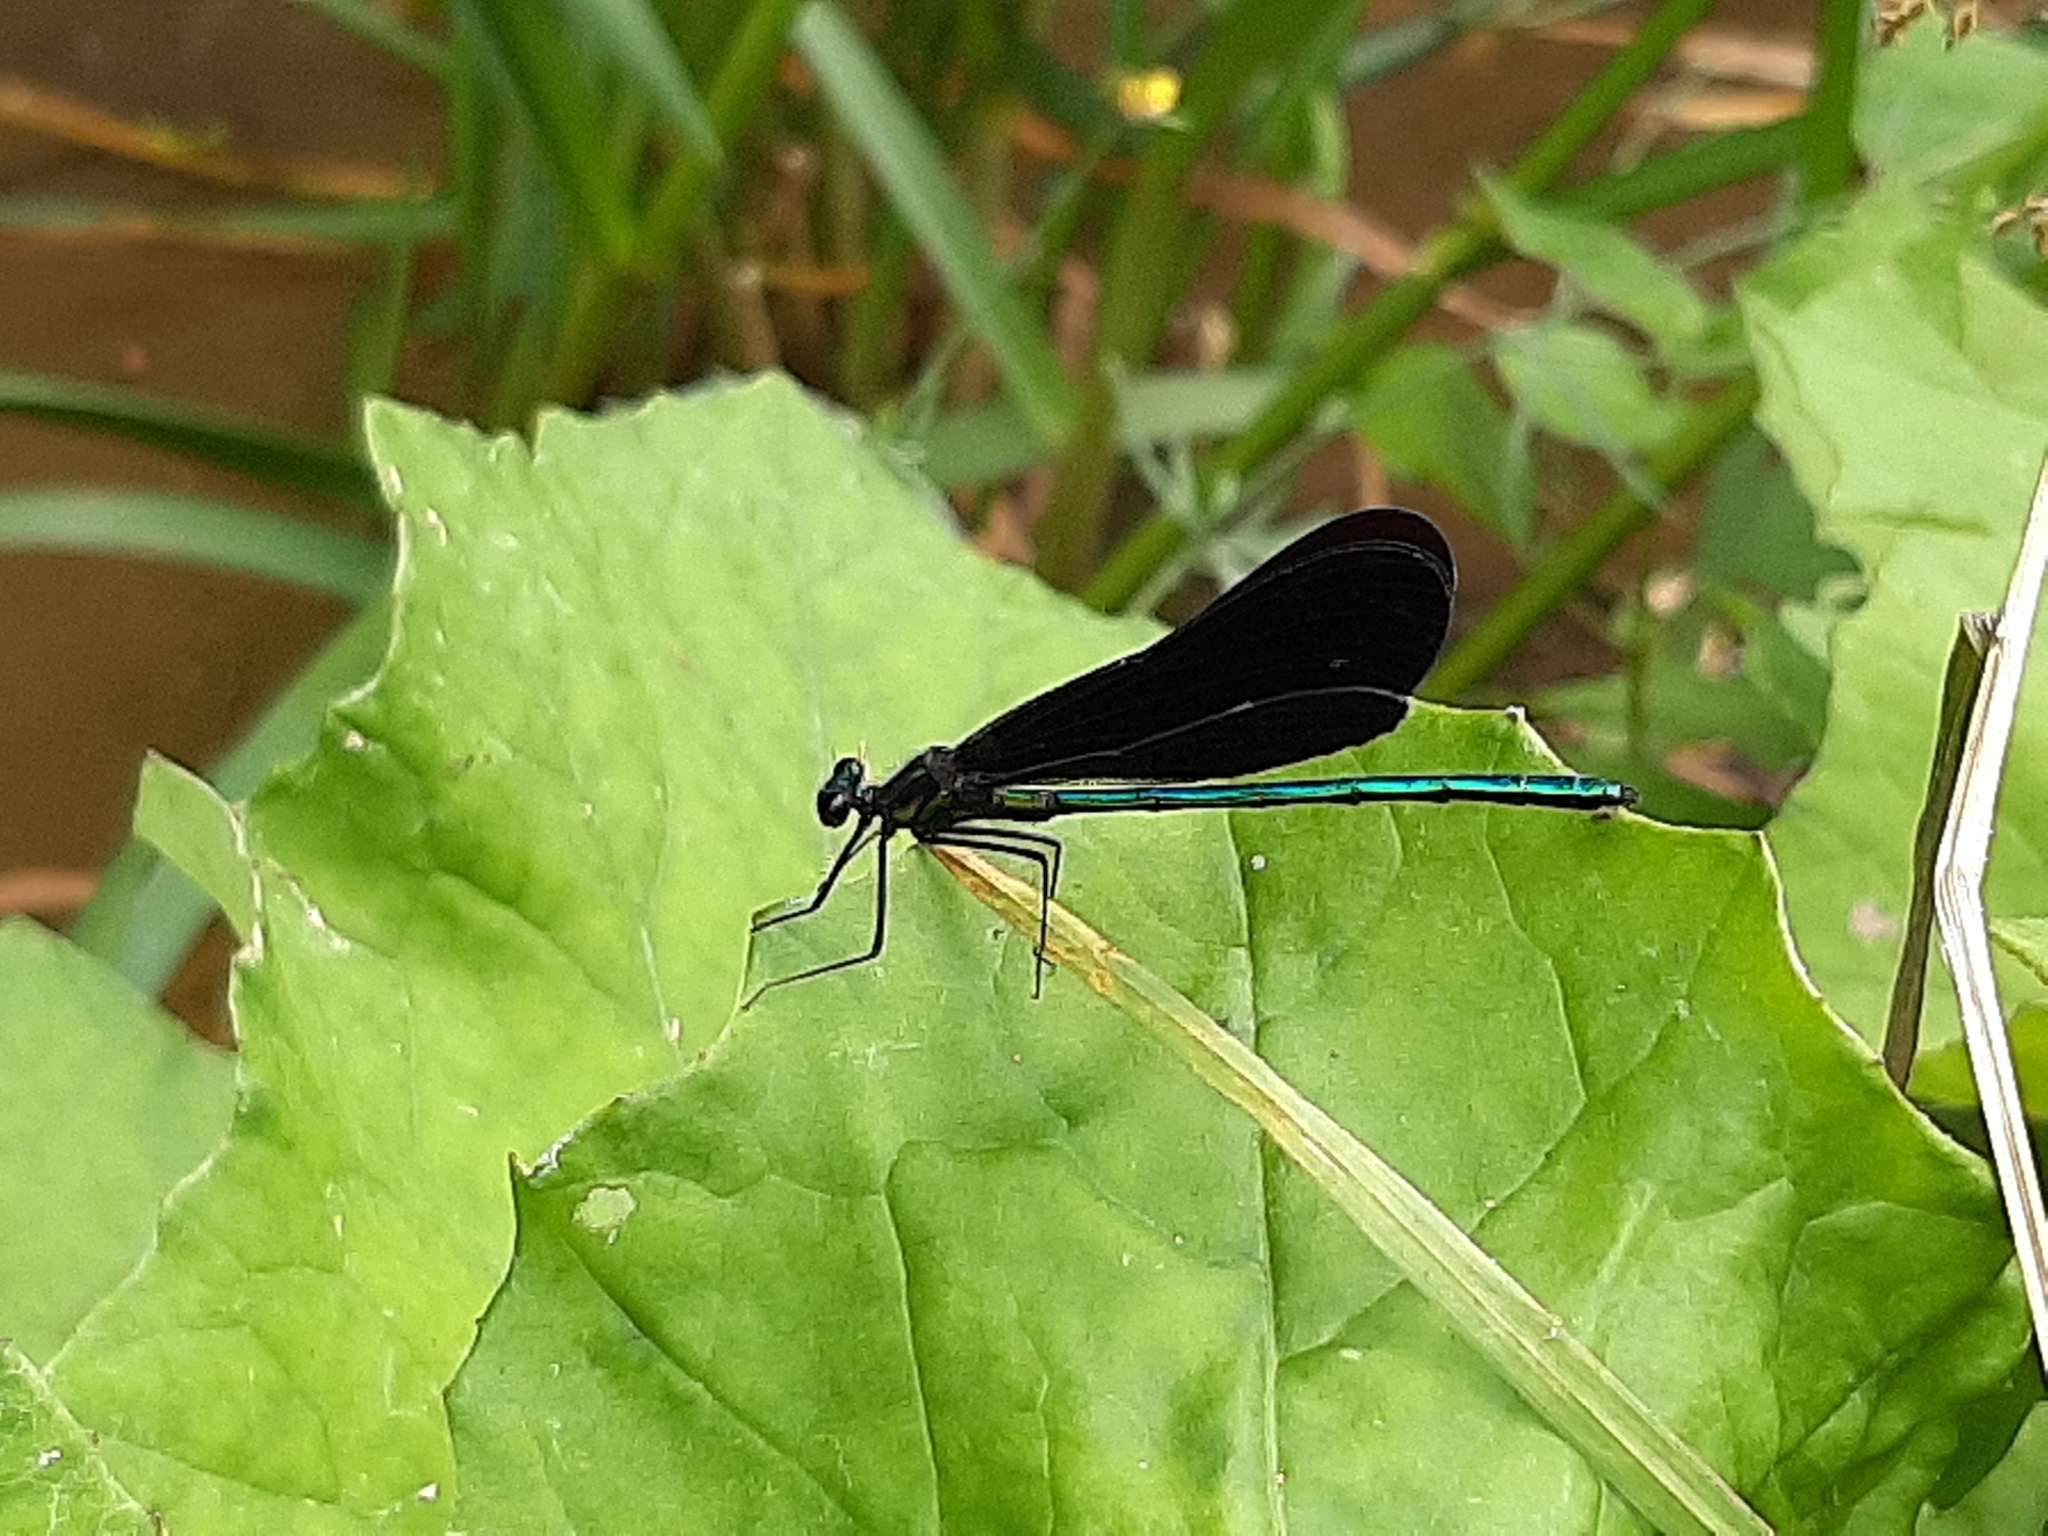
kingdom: Animalia
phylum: Arthropoda
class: Insecta
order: Odonata
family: Calopterygidae
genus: Calopteryx
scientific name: Calopteryx maculata
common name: Ebony jewelwing
